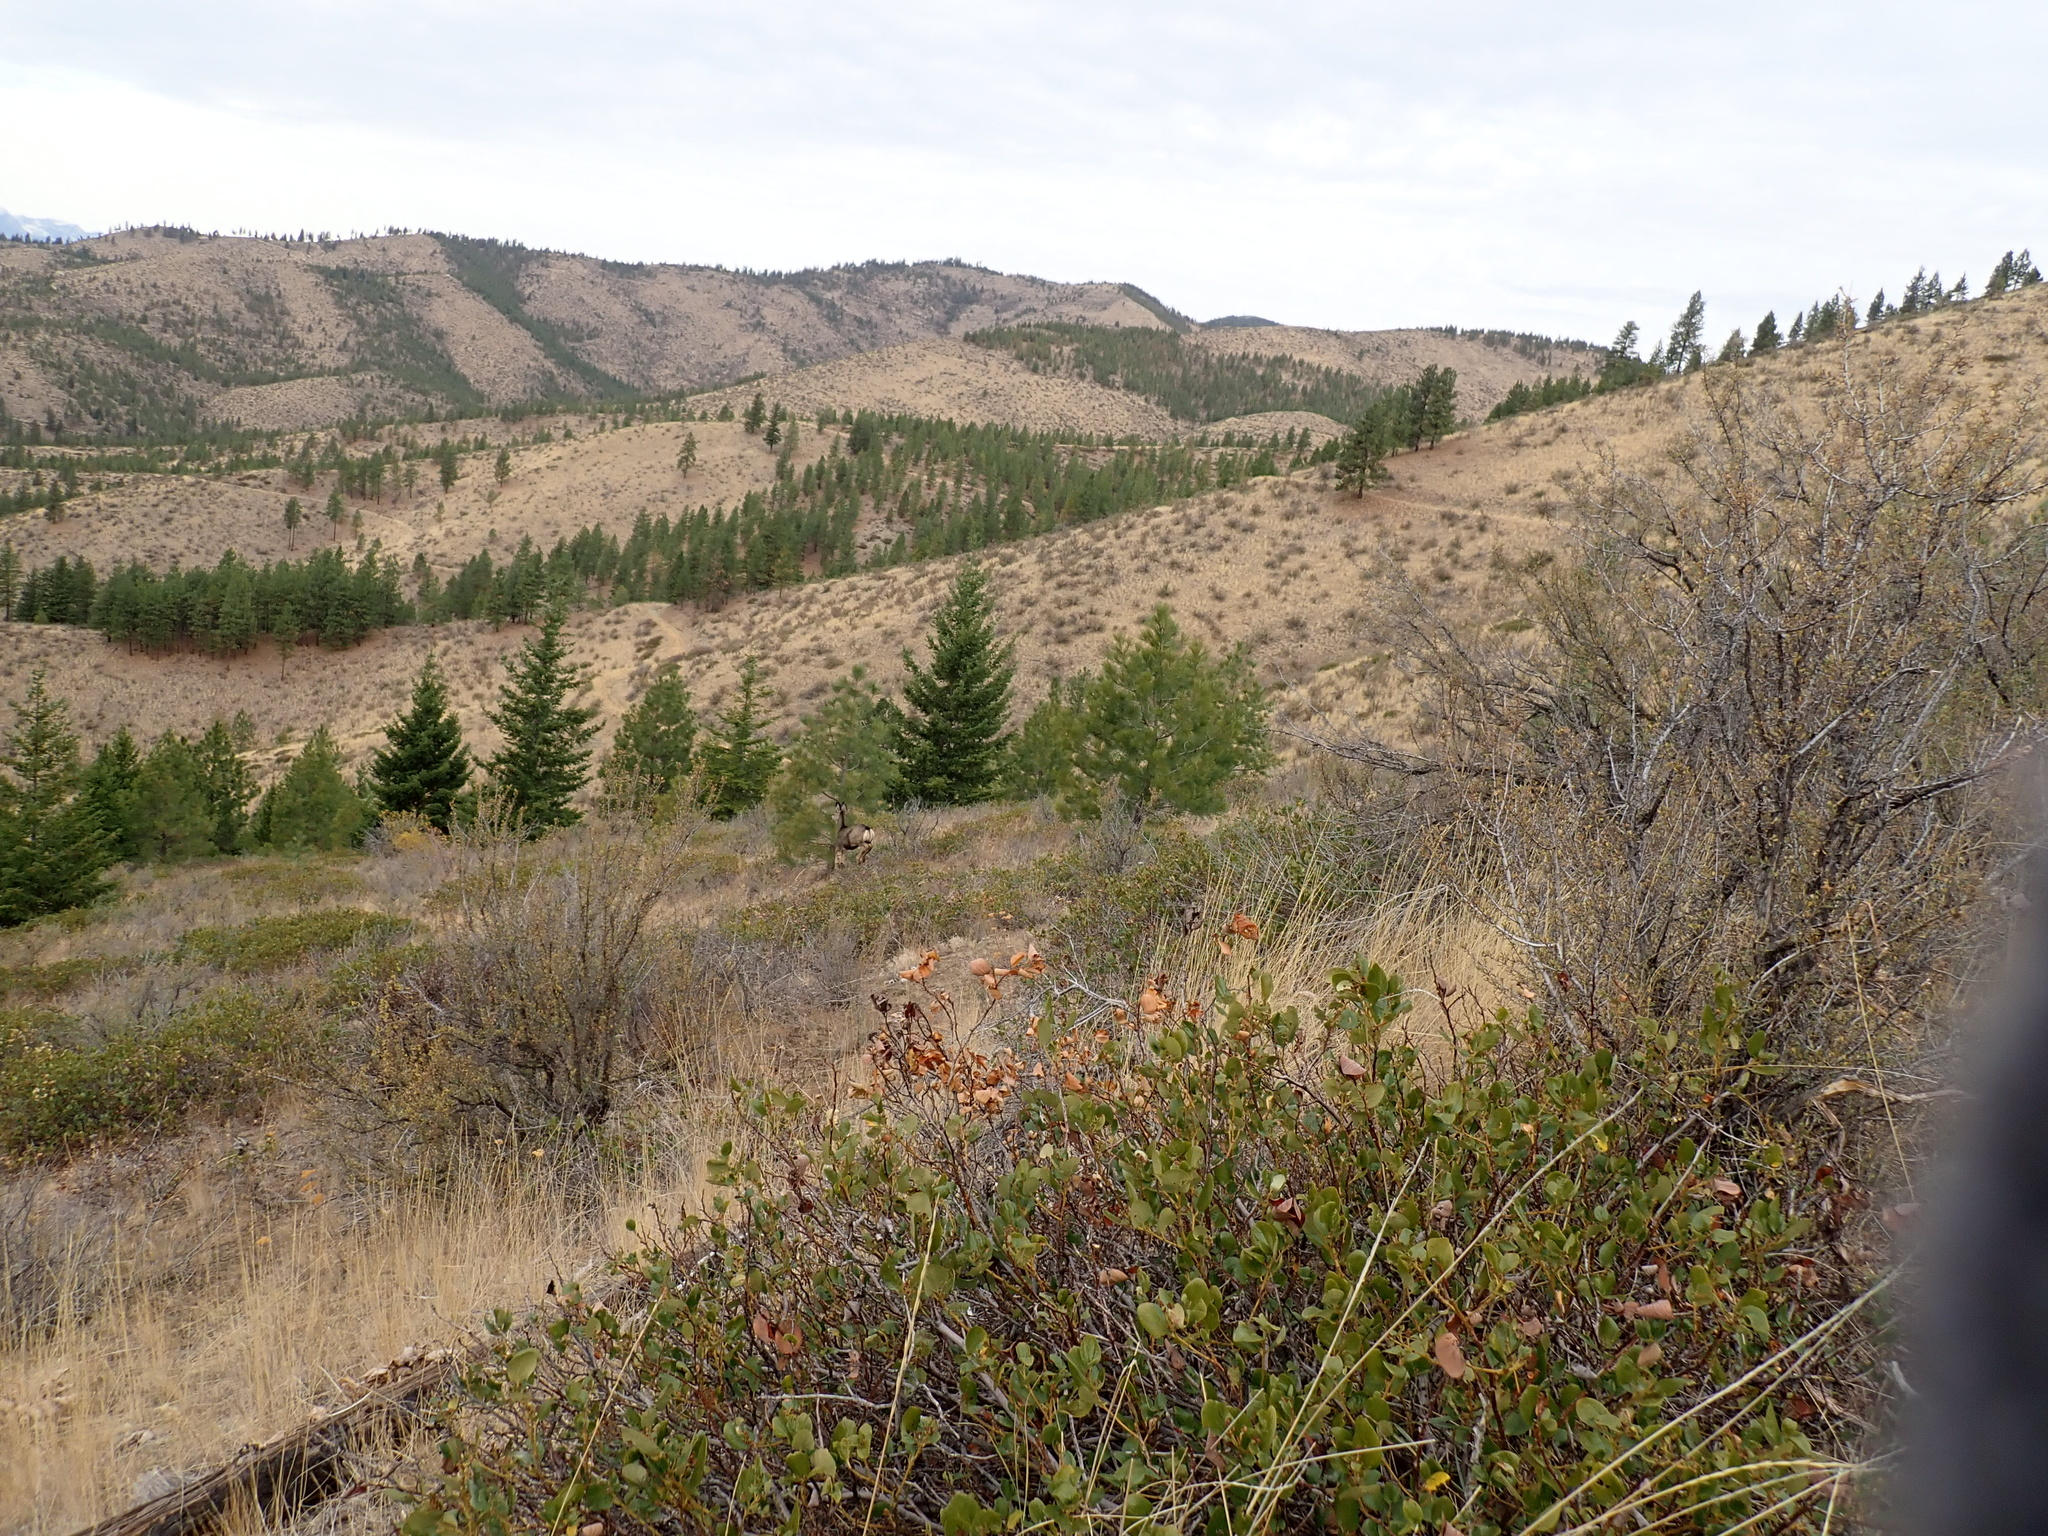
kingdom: Animalia
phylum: Chordata
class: Mammalia
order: Artiodactyla
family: Cervidae
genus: Odocoileus
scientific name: Odocoileus hemionus
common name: Mule deer
